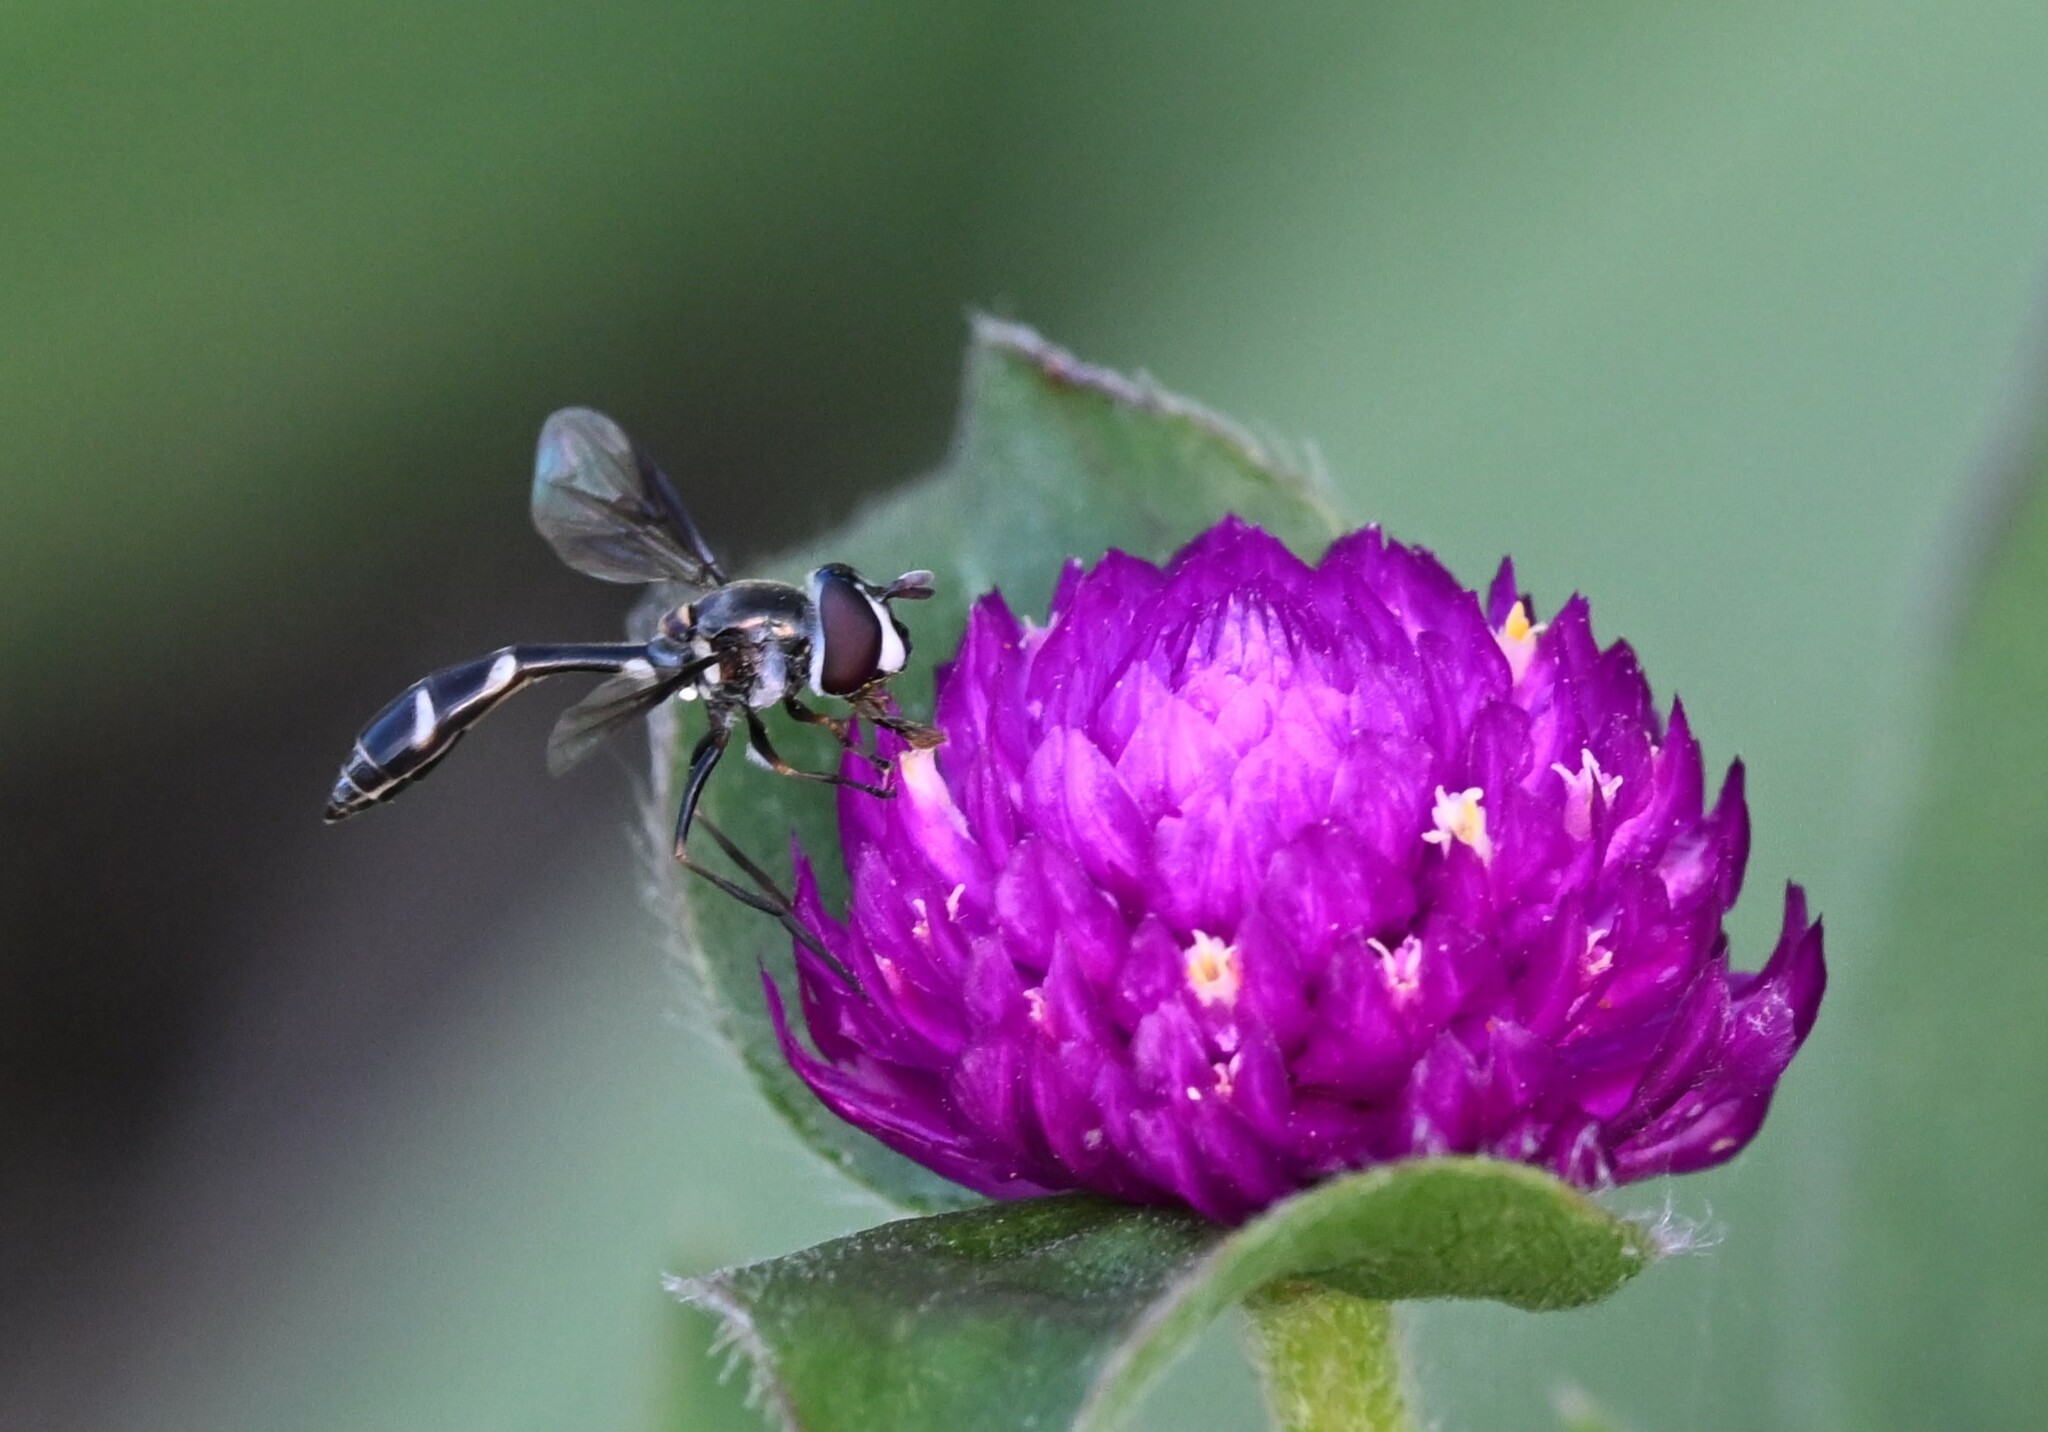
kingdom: Animalia
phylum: Arthropoda
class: Insecta
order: Diptera
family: Syrphidae
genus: Dioprosopa
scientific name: Dioprosopa clavatus
